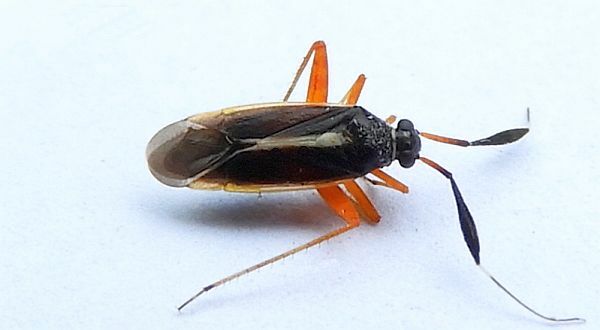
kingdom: Animalia
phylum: Arthropoda
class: Insecta
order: Hemiptera
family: Miridae
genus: Garganus
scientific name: Garganus fusiformis
